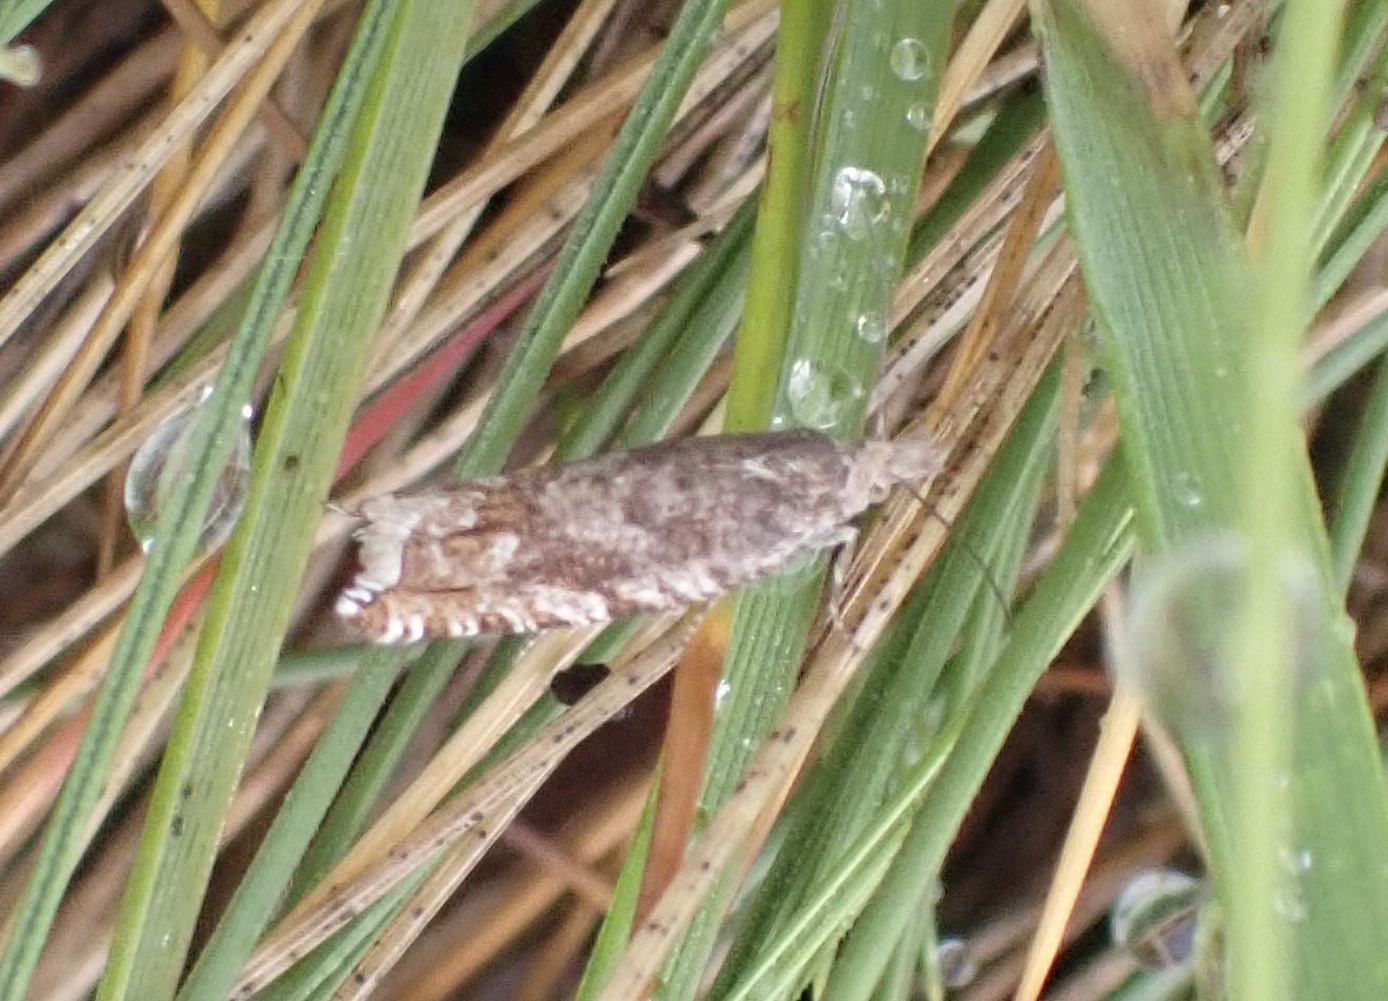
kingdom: Animalia
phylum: Arthropoda
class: Insecta
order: Lepidoptera
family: Tortricidae
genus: Ancylis
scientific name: Ancylis unguicella
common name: Broken-barred roller
